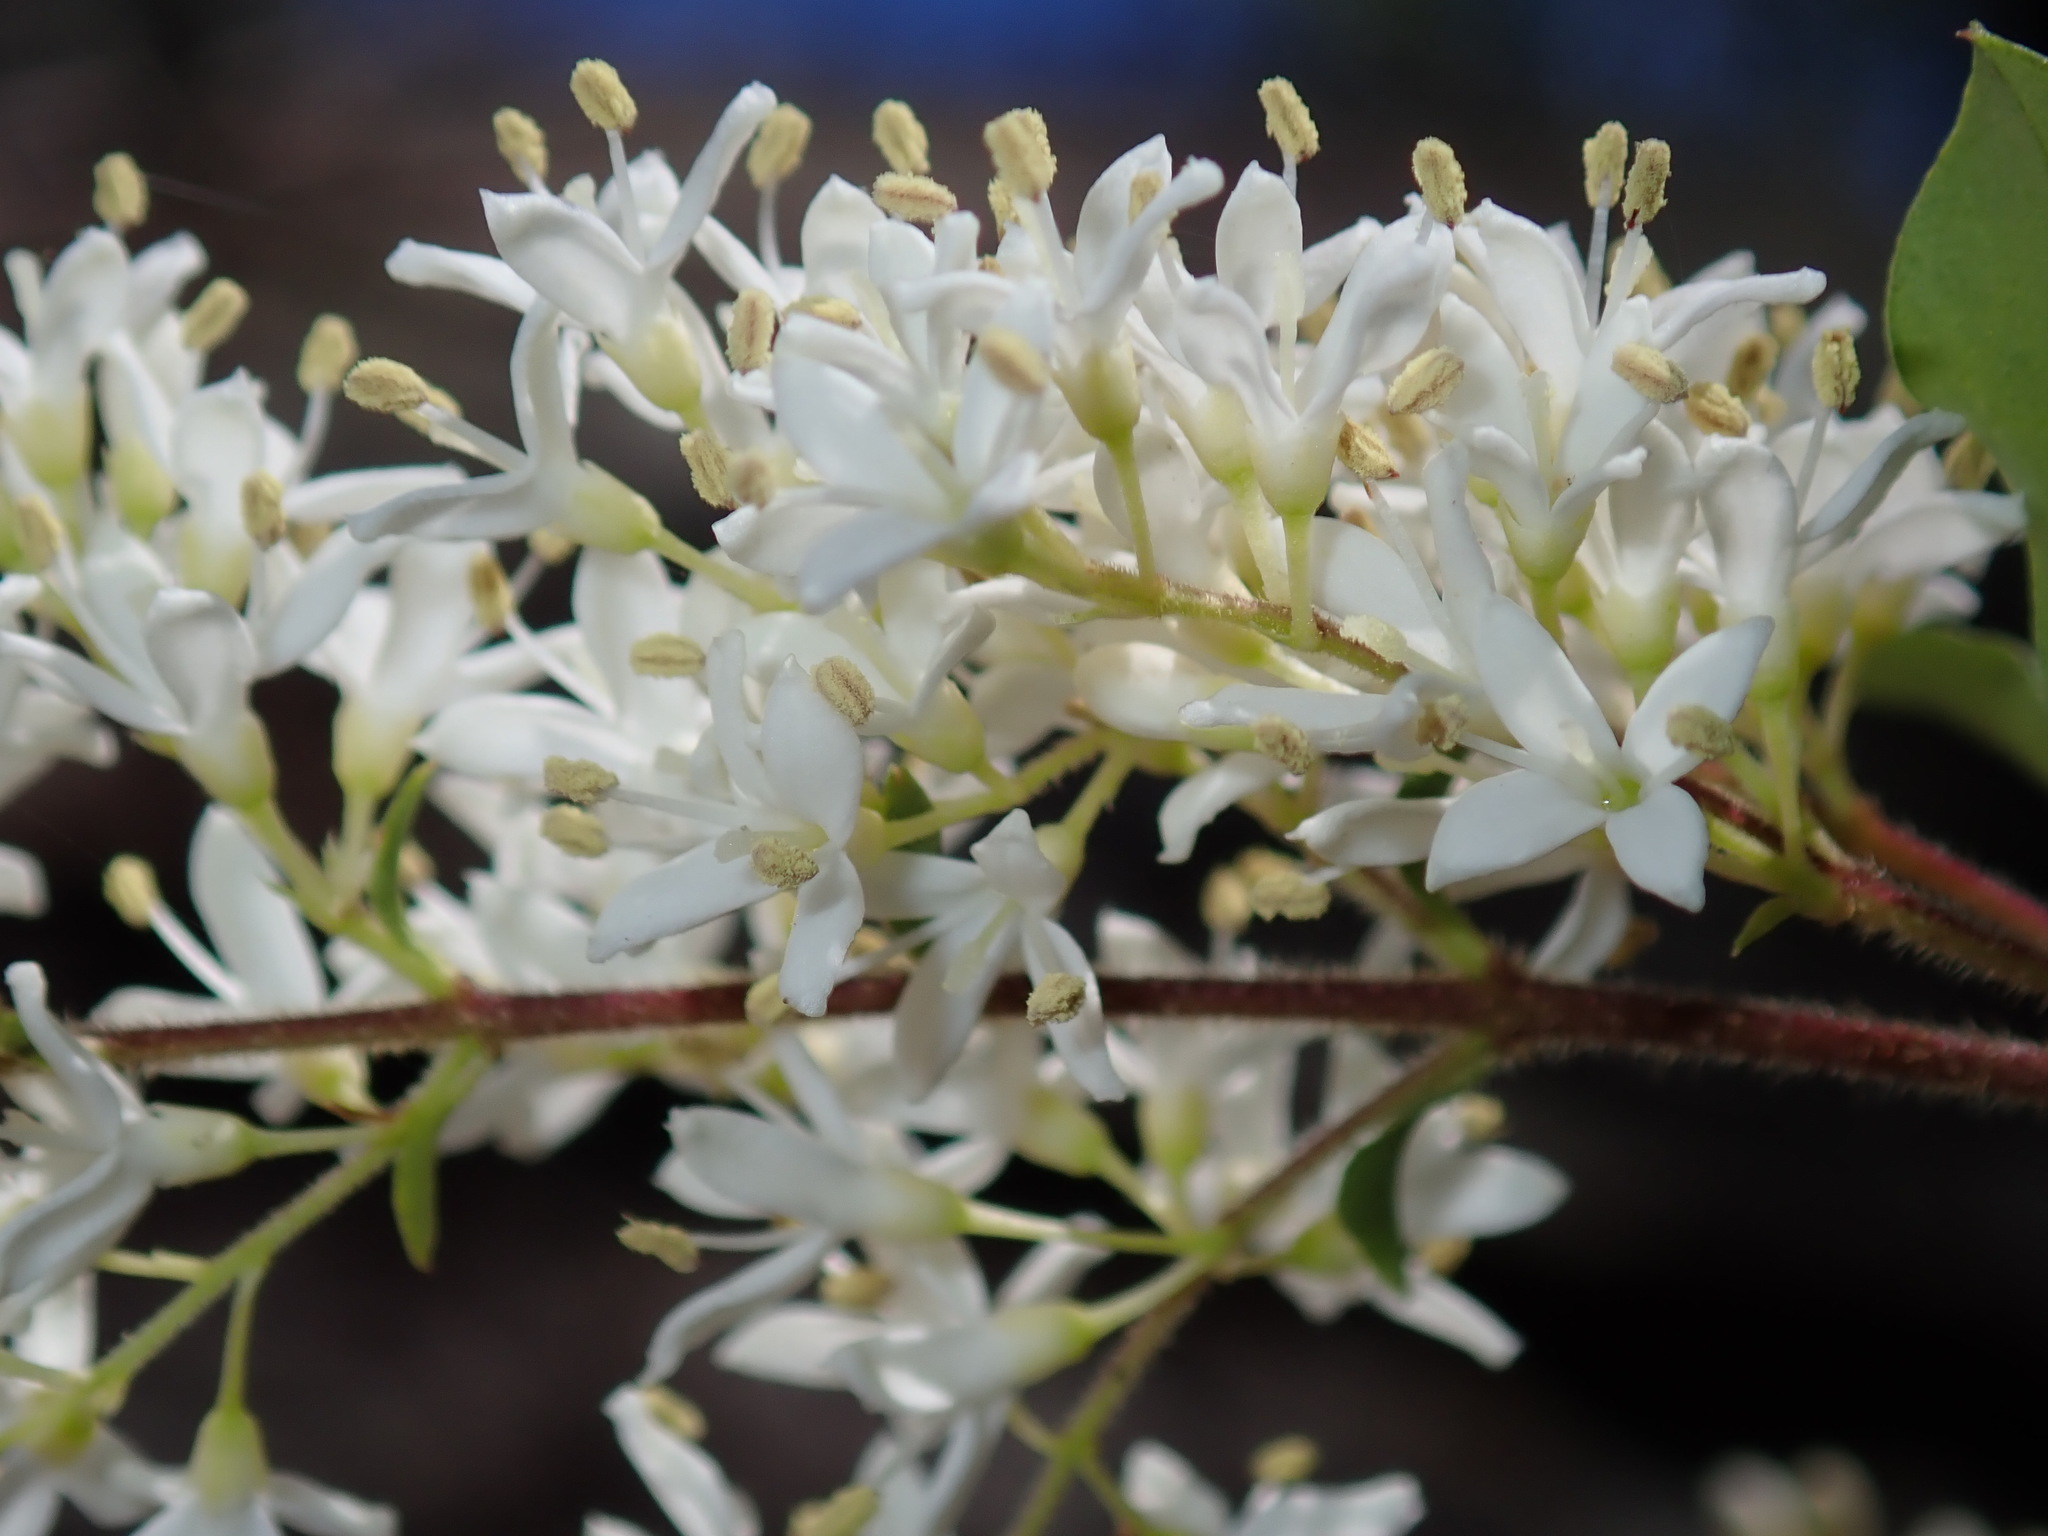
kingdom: Plantae
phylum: Tracheophyta
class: Magnoliopsida
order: Lamiales
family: Oleaceae
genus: Ligustrum
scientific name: Ligustrum sinense
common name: Chinese privet
